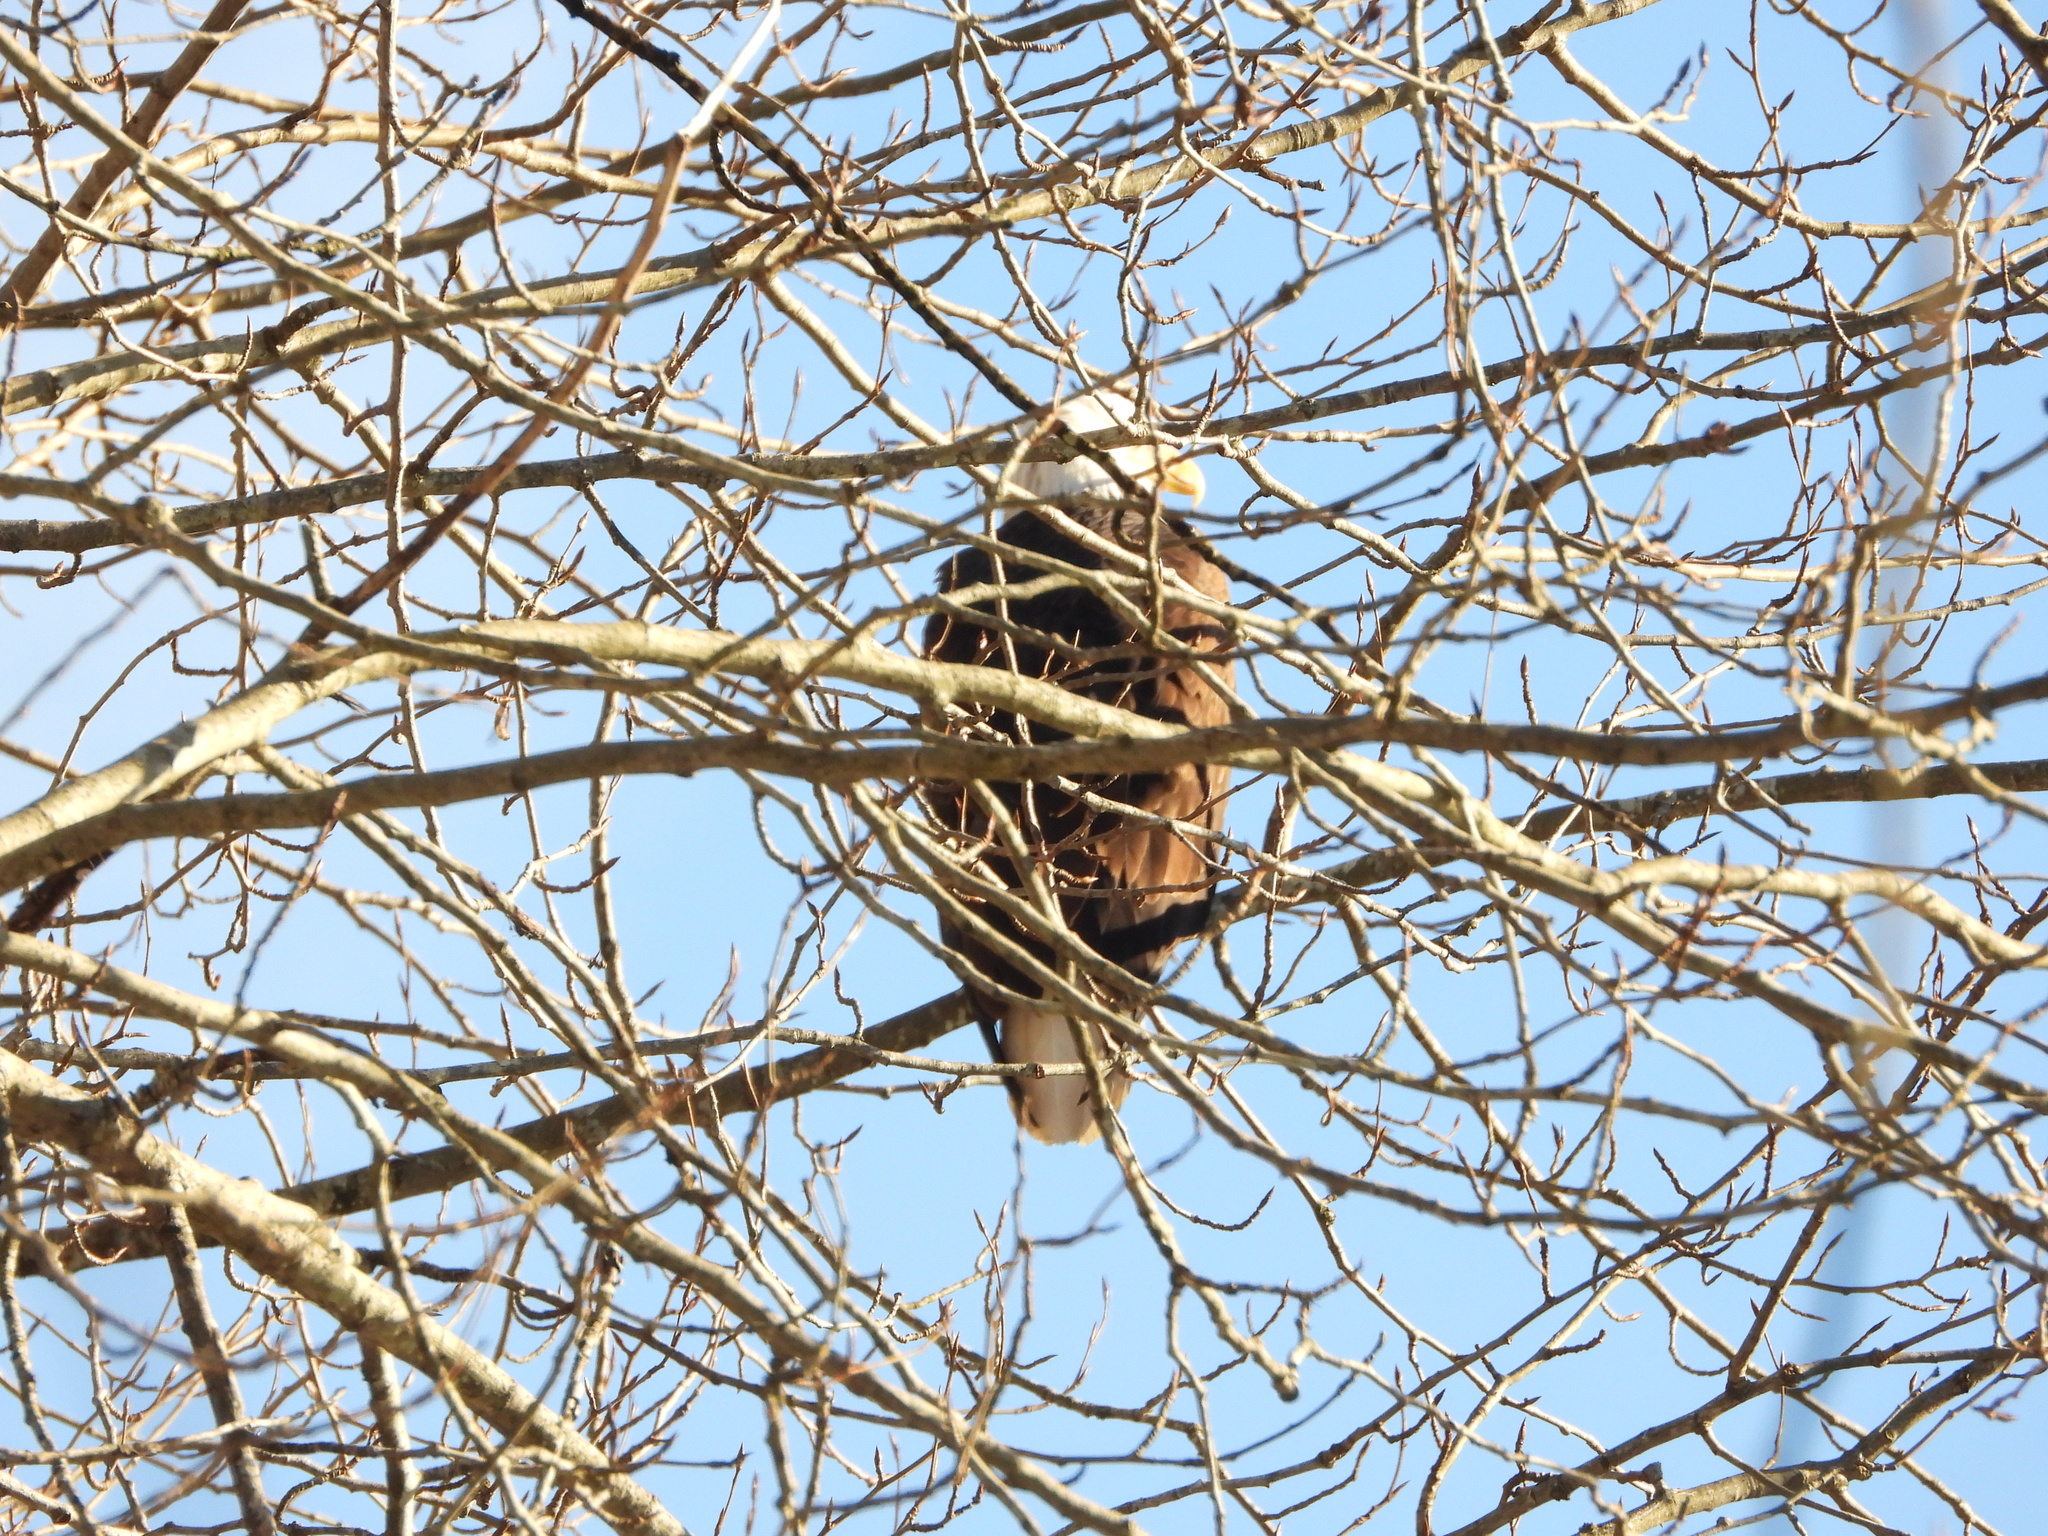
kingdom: Animalia
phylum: Chordata
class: Aves
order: Accipitriformes
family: Accipitridae
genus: Haliaeetus
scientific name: Haliaeetus leucocephalus
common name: Bald eagle
